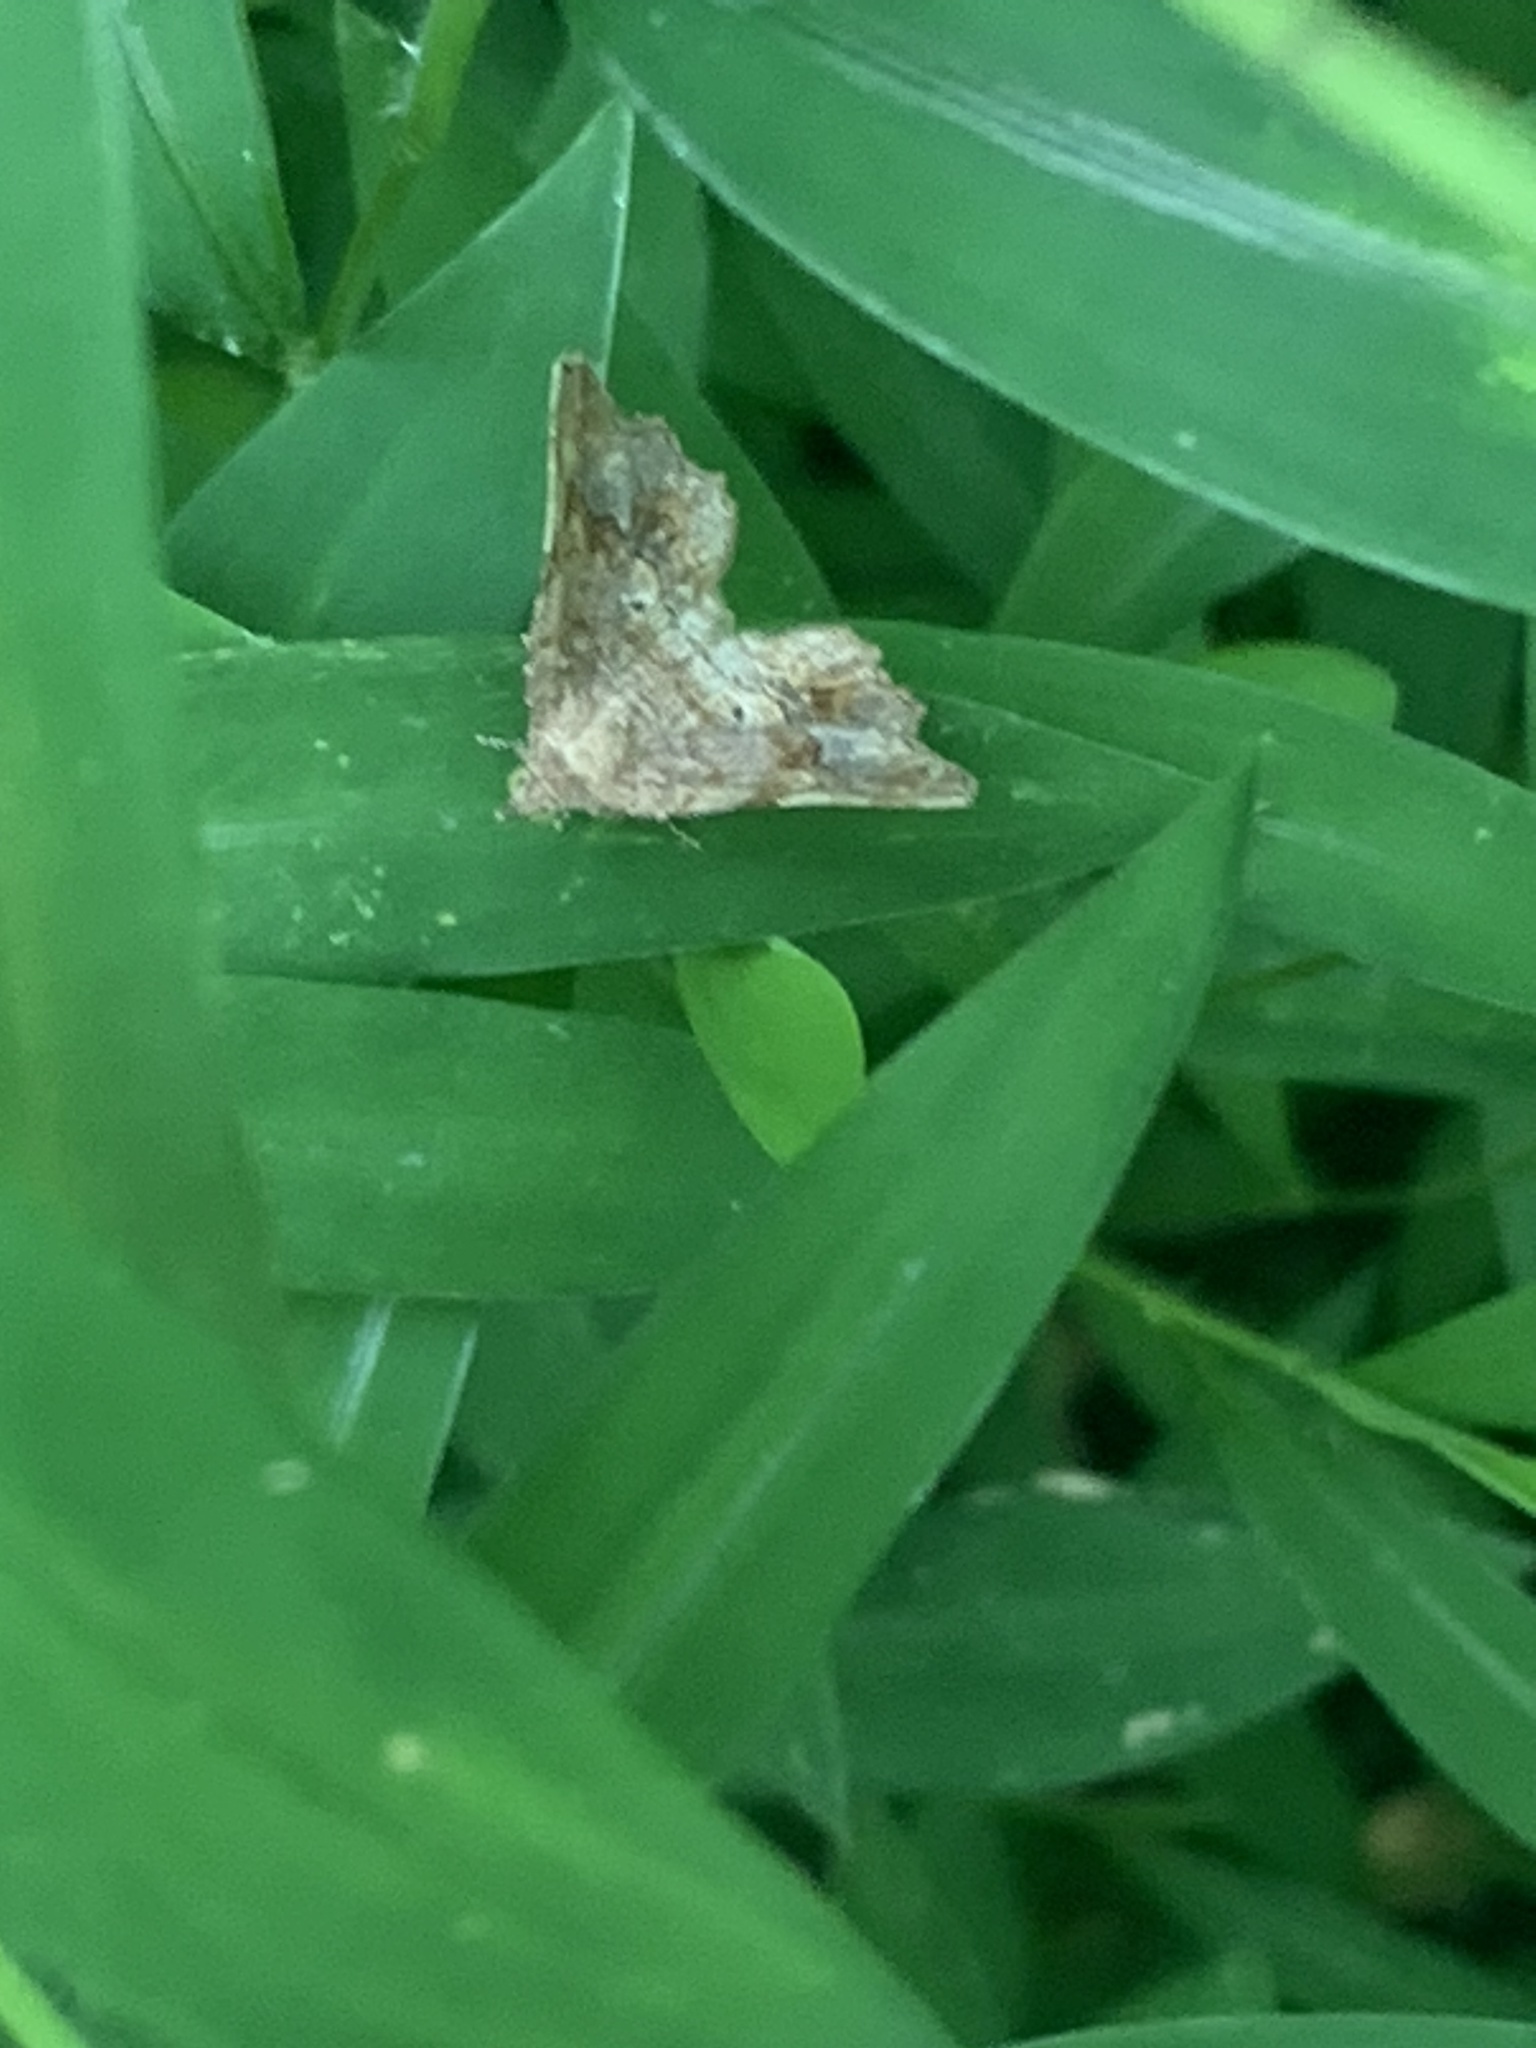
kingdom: Animalia
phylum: Arthropoda
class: Insecta
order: Lepidoptera
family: Erebidae
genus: Pangrapta
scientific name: Pangrapta decoralis
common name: Decorated owlet
